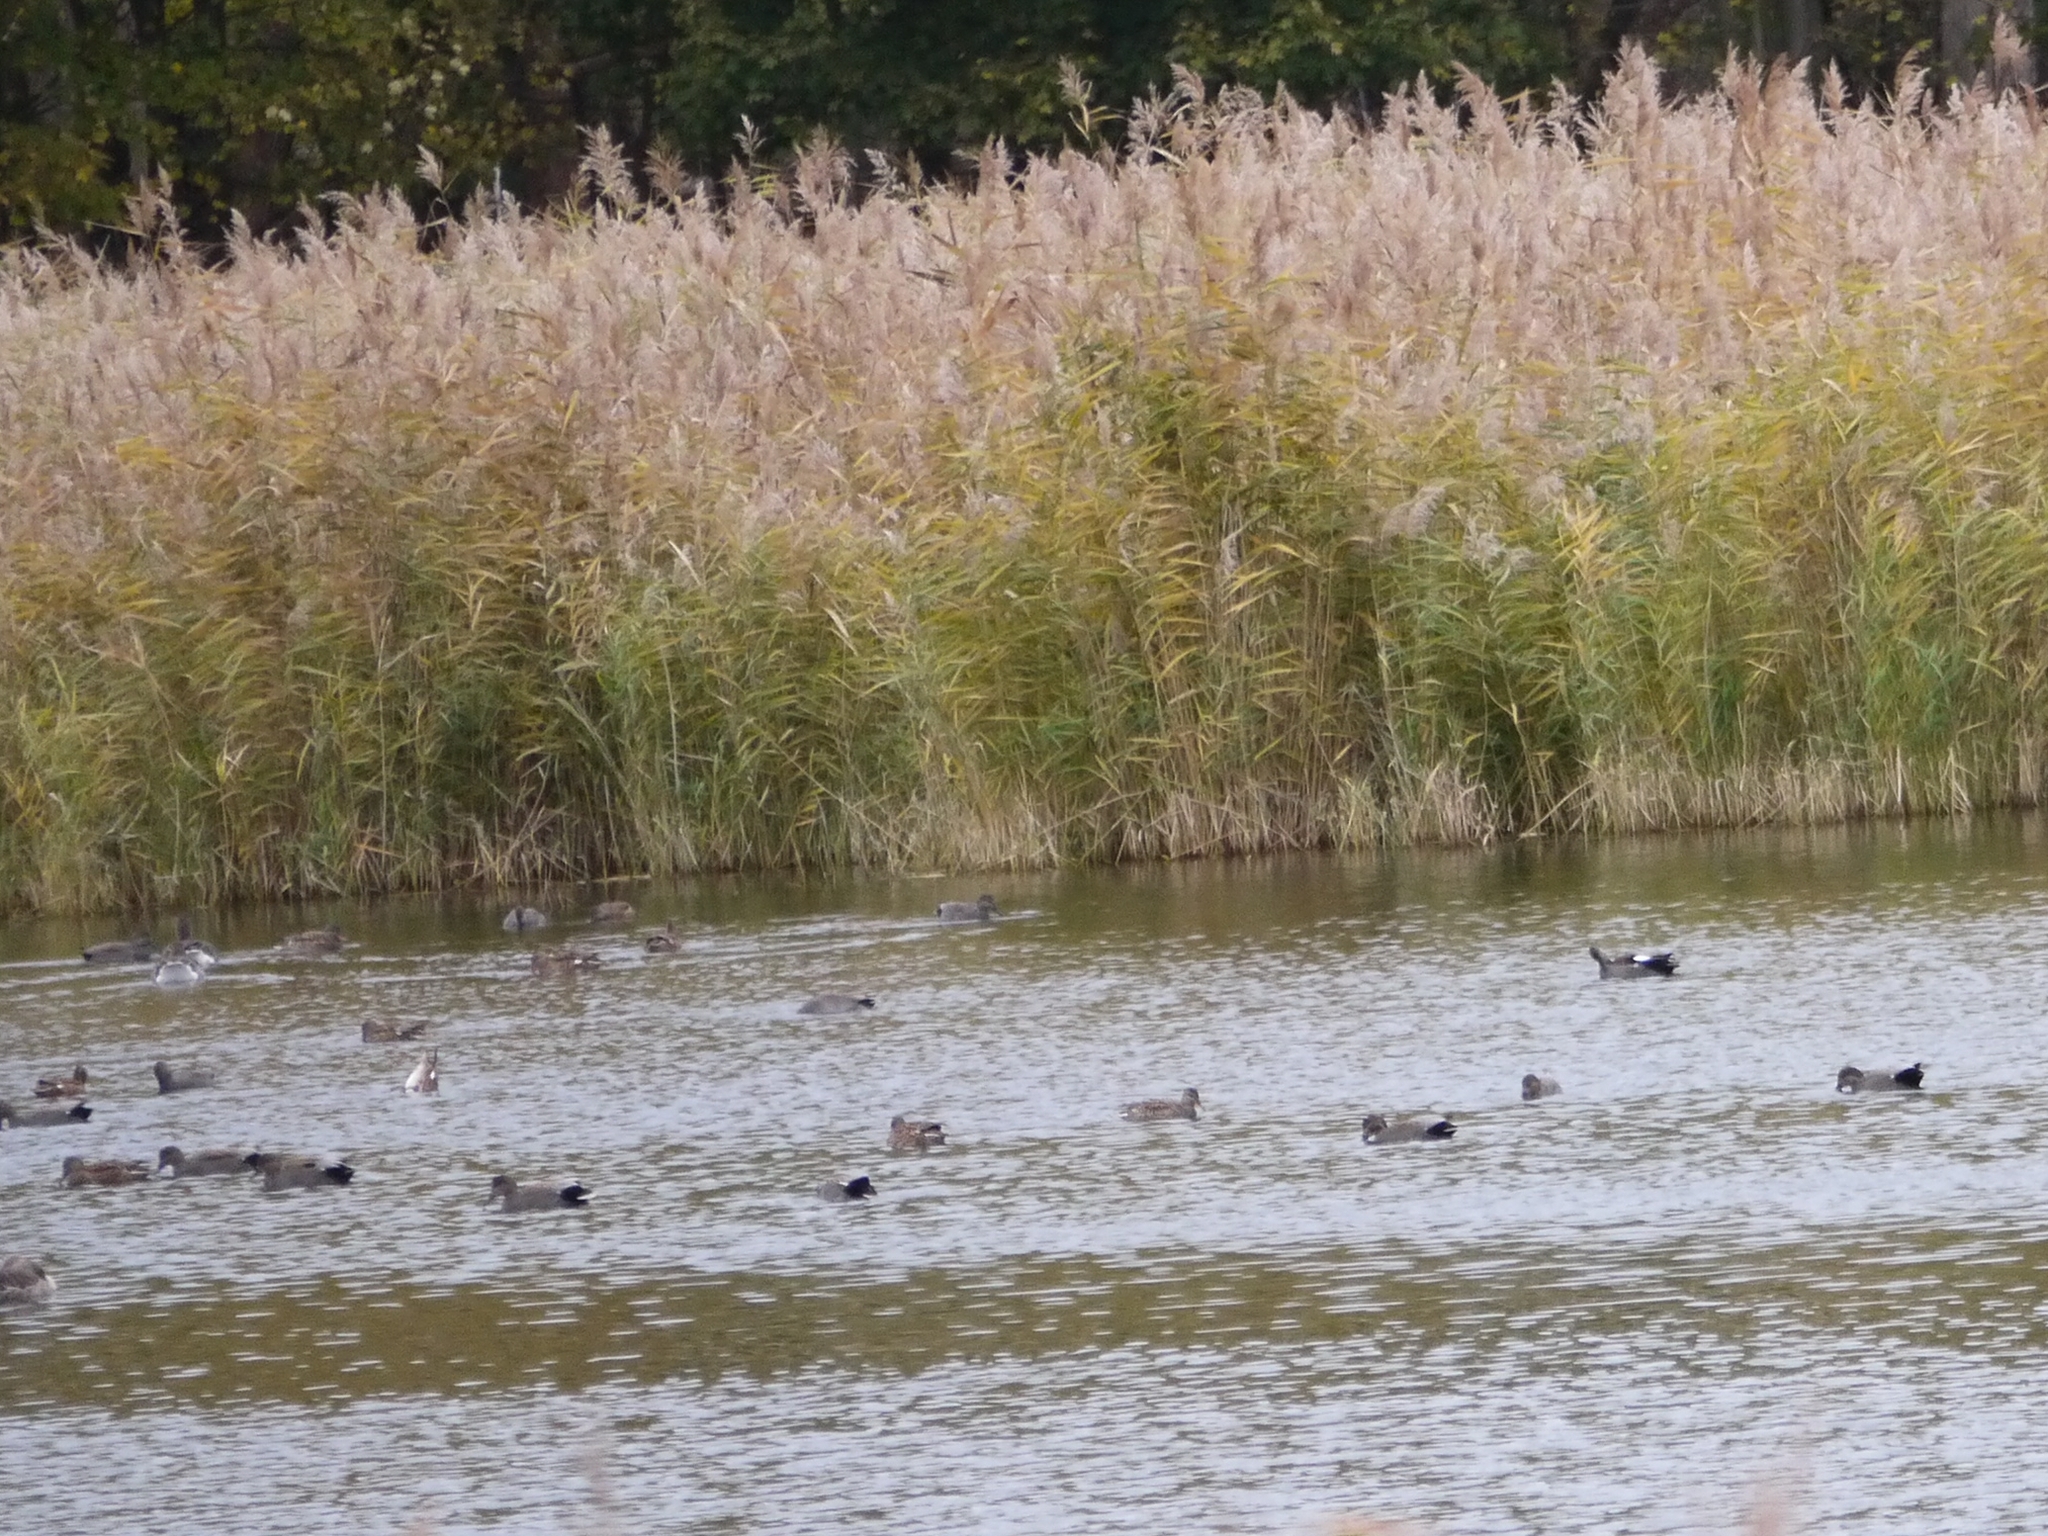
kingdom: Animalia
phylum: Chordata
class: Aves
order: Anseriformes
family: Anatidae
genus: Mareca
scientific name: Mareca strepera
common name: Gadwall
